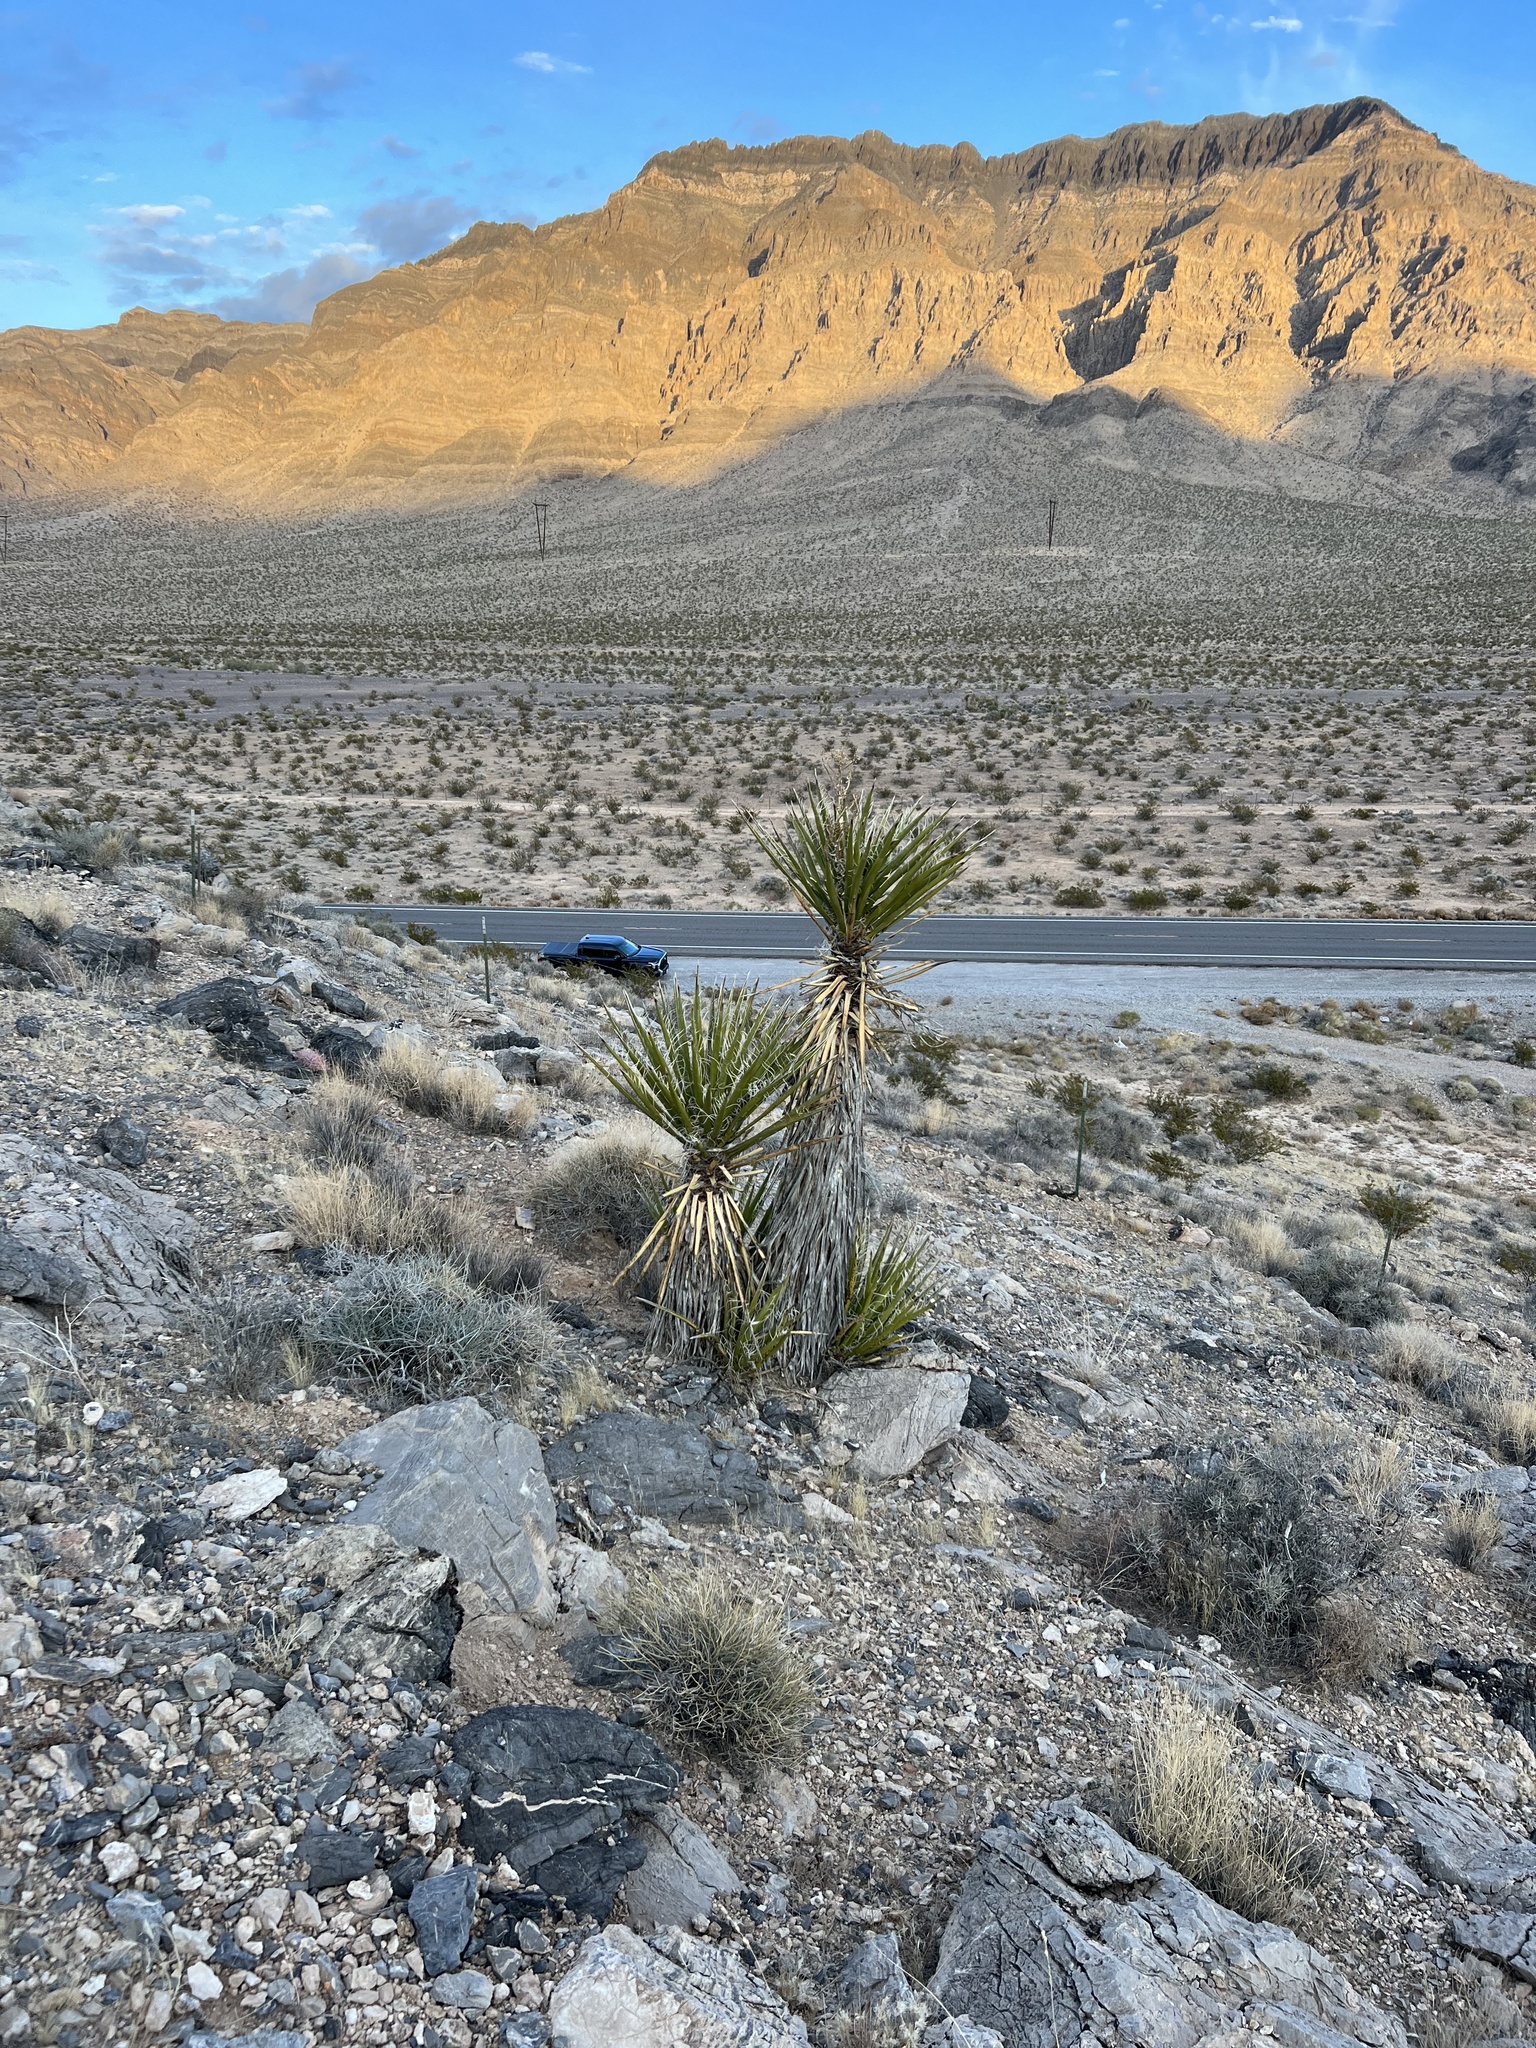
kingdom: Plantae
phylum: Tracheophyta
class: Liliopsida
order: Asparagales
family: Asparagaceae
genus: Yucca
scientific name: Yucca schidigera
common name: Mojave yucca
